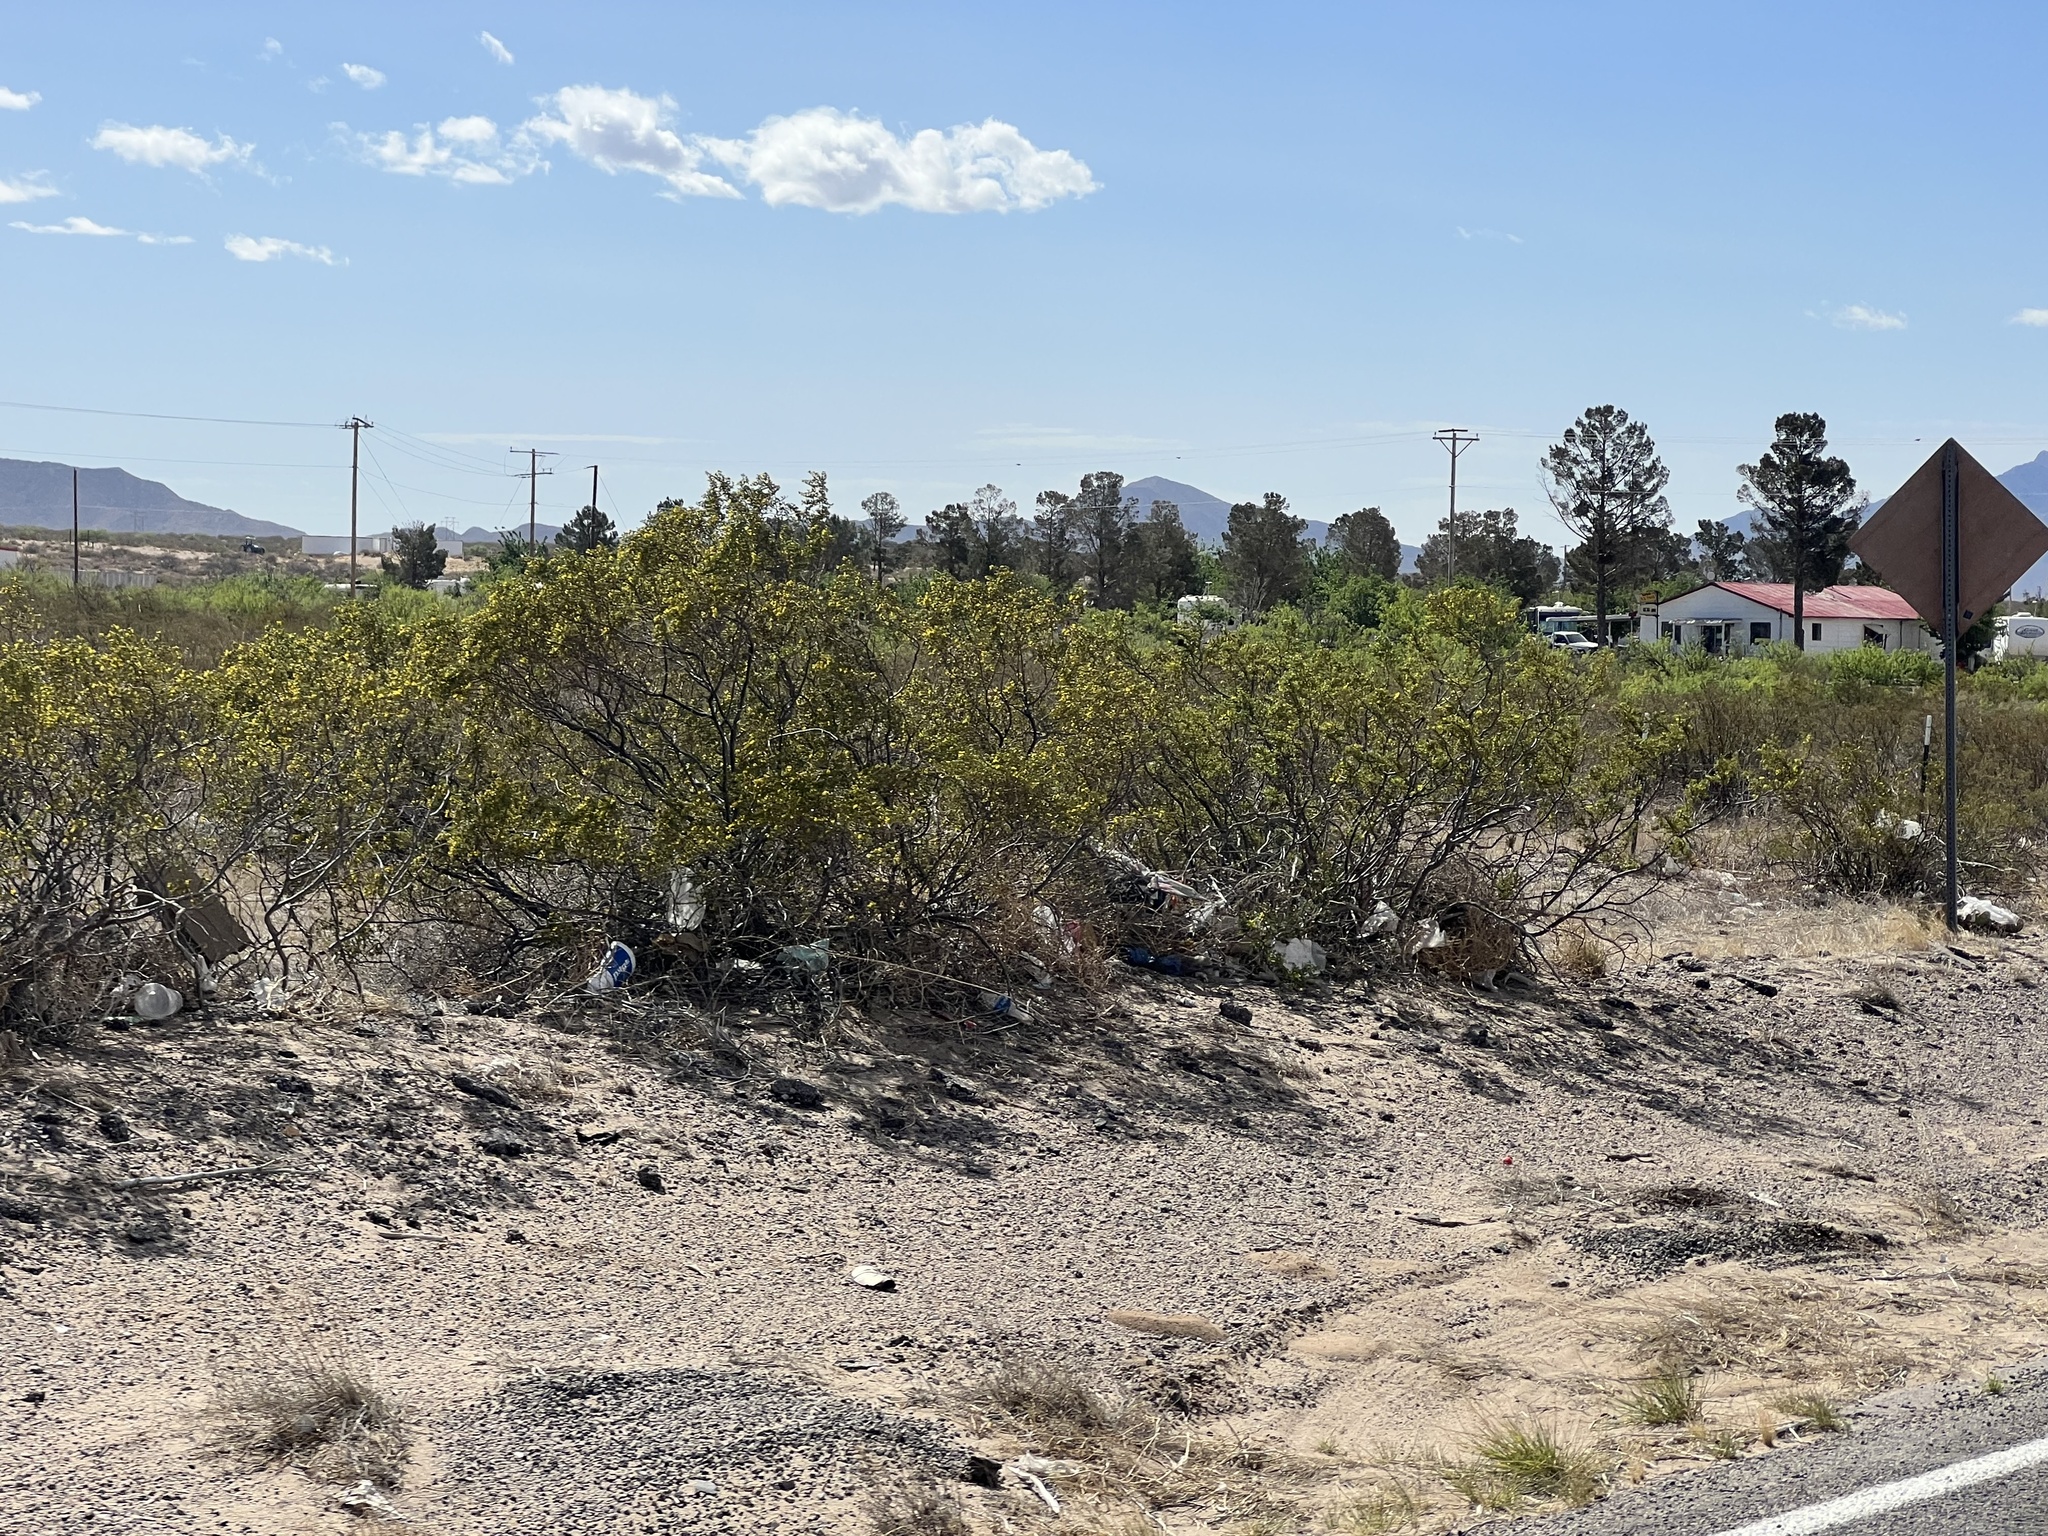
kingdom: Plantae
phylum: Tracheophyta
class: Magnoliopsida
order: Zygophyllales
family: Zygophyllaceae
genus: Larrea
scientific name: Larrea tridentata
